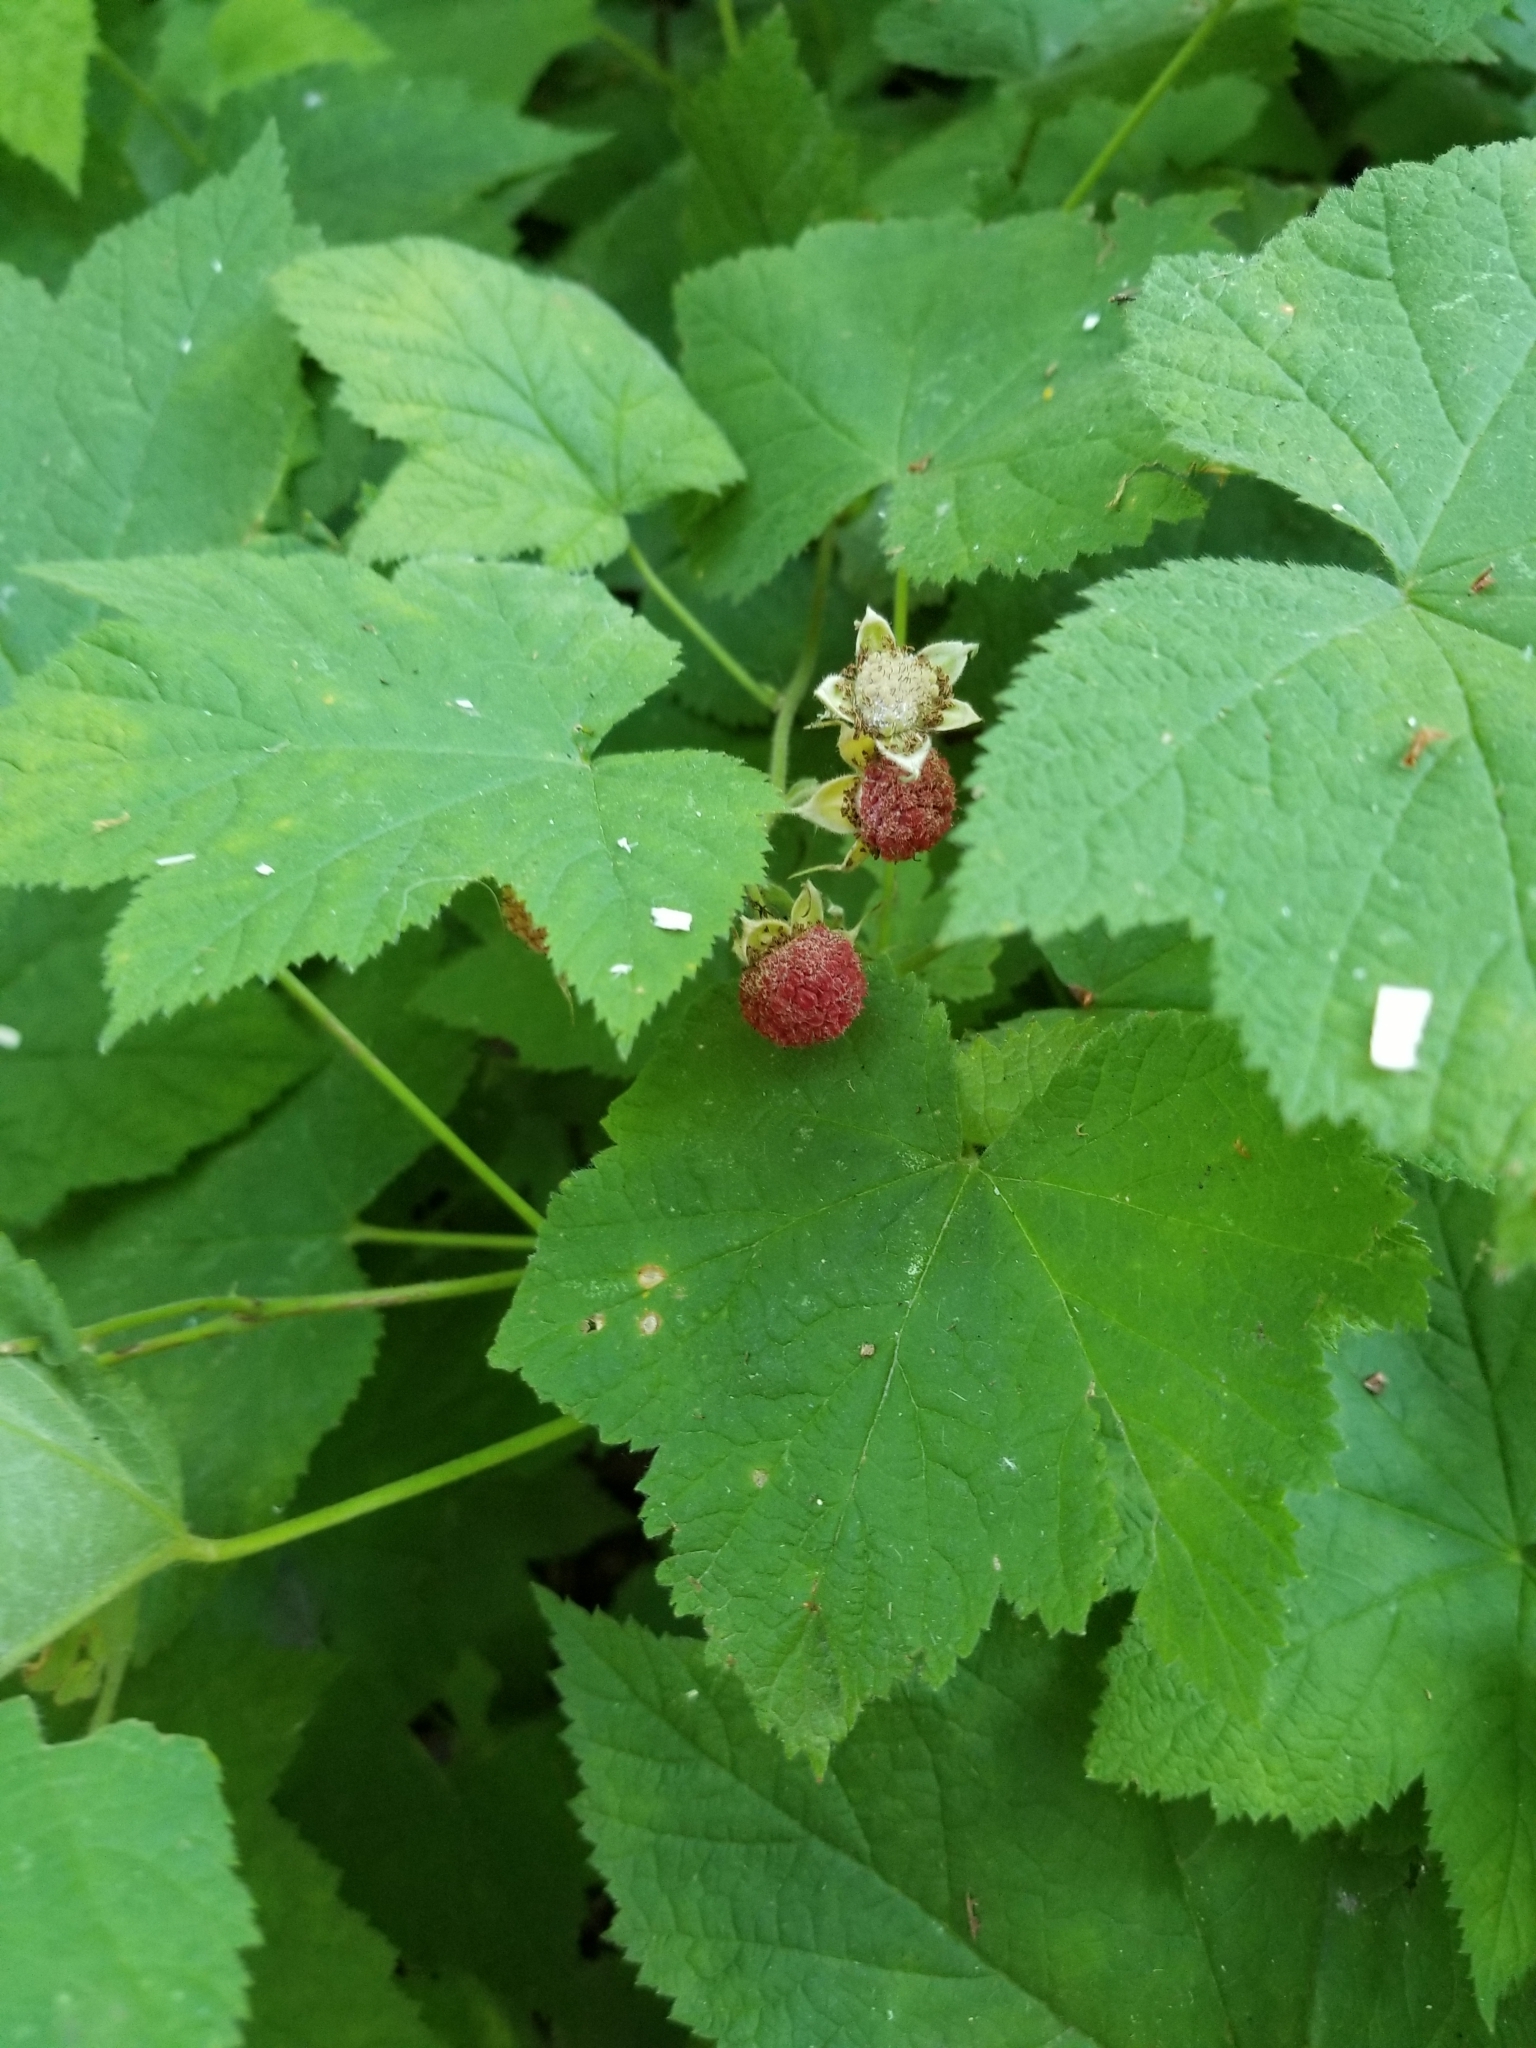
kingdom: Plantae
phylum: Tracheophyta
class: Magnoliopsida
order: Rosales
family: Rosaceae
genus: Rubus
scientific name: Rubus parviflorus
